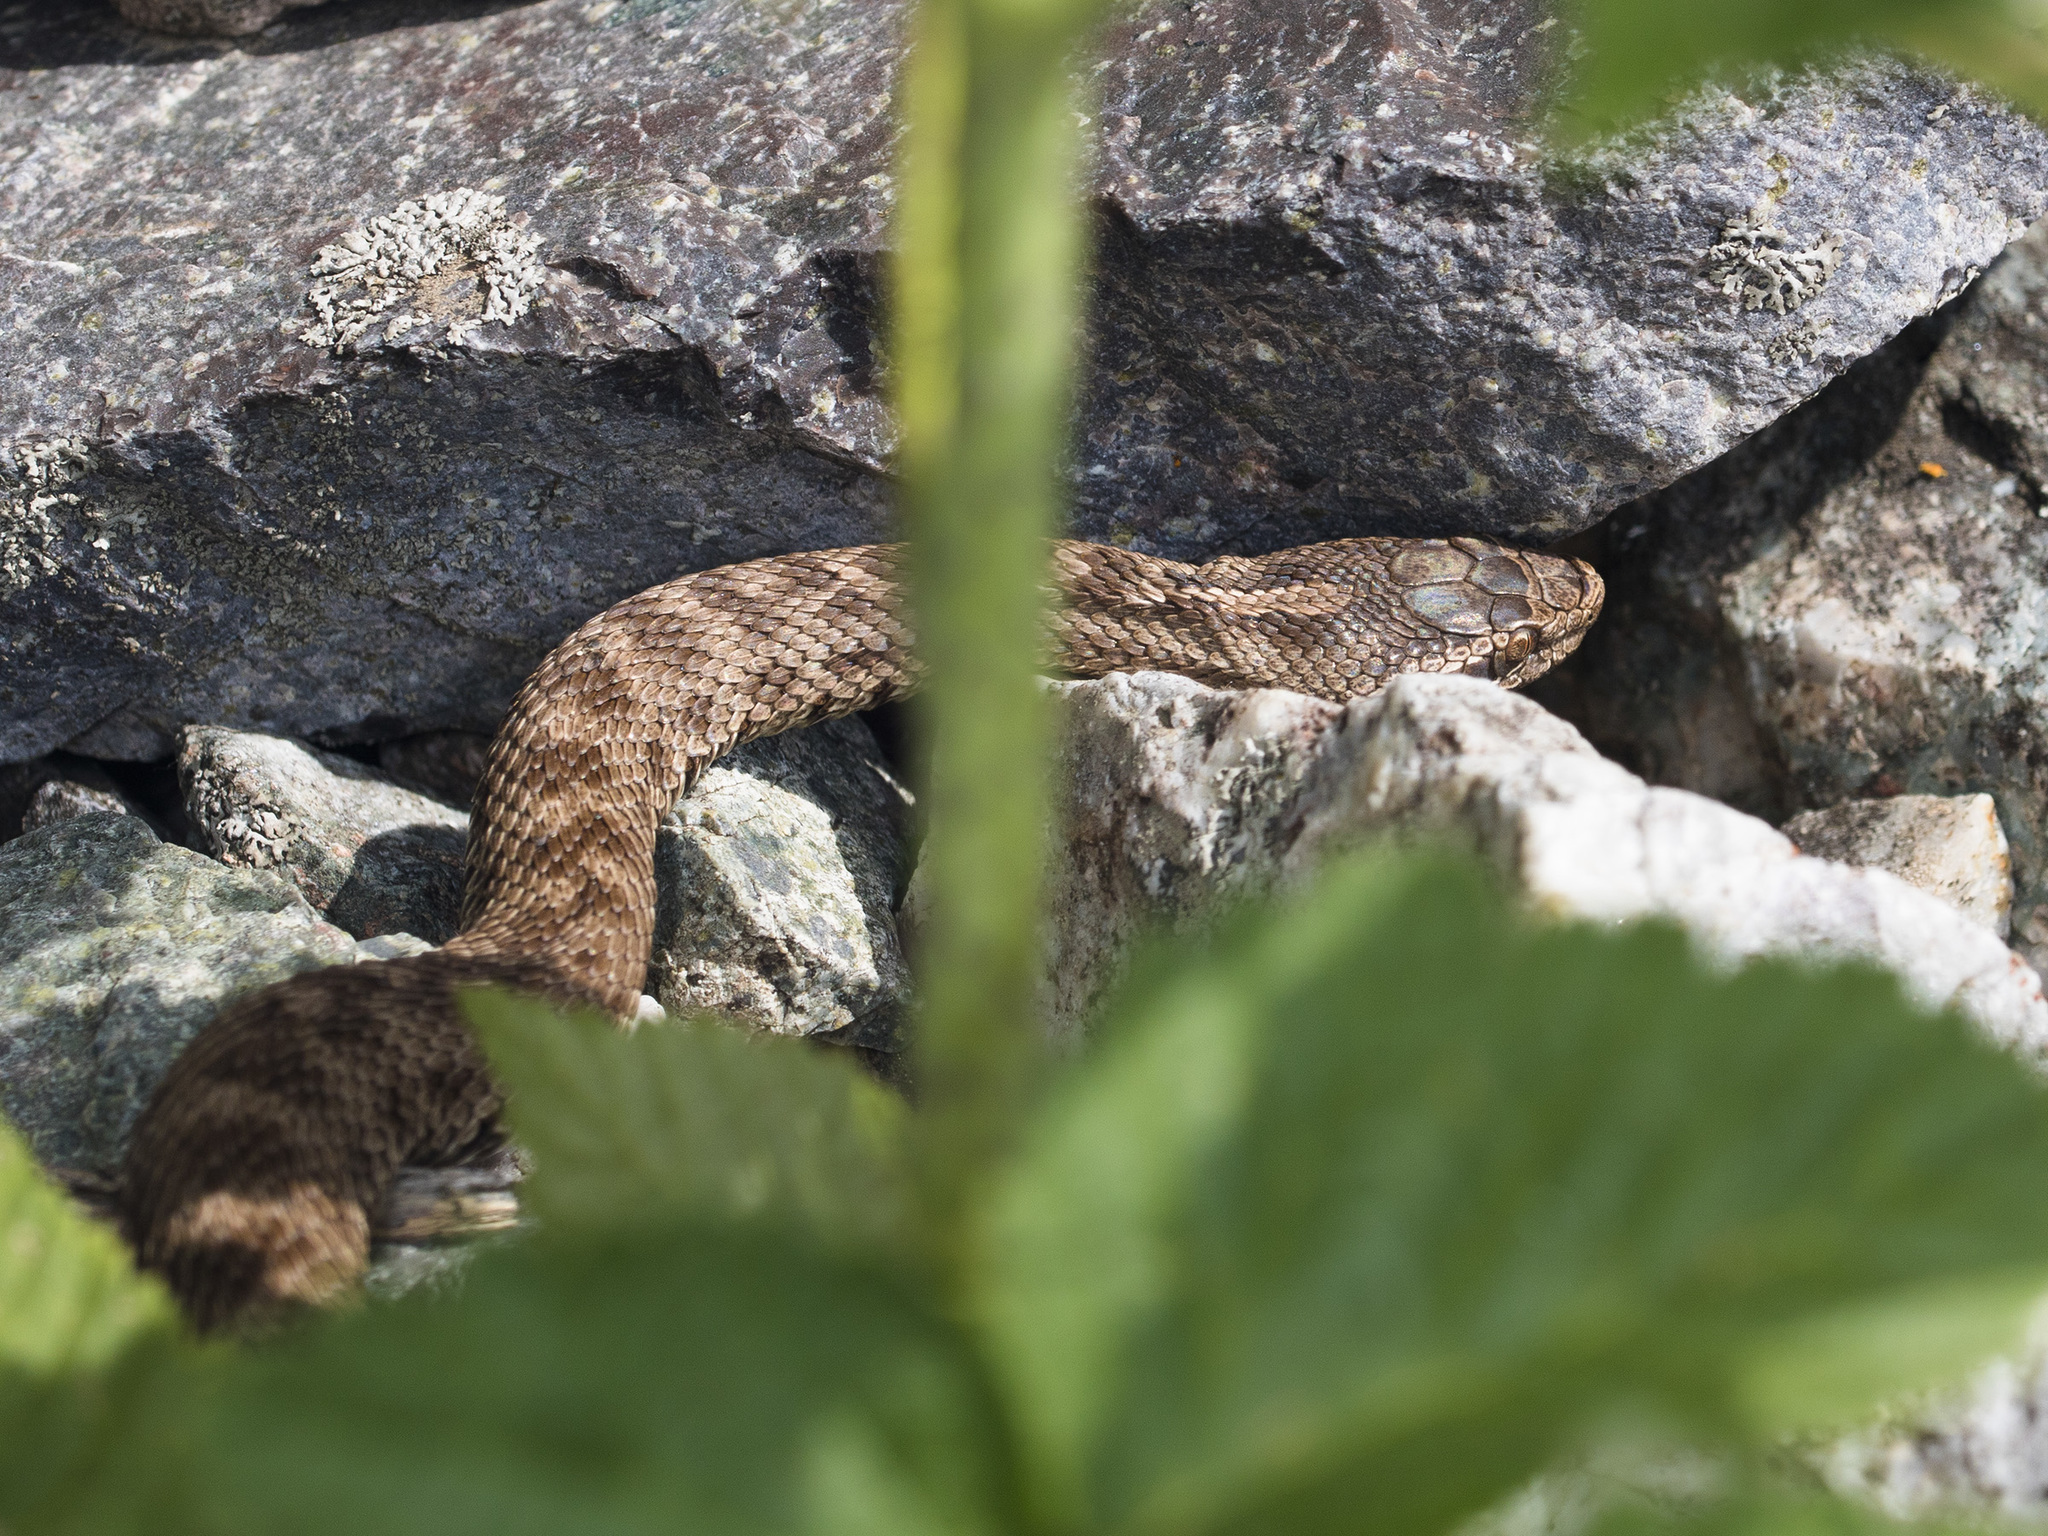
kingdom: Animalia
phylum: Chordata
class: Squamata
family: Viperidae
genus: Gloydius
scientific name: Gloydius caraganus
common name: Karaganda pitviper
